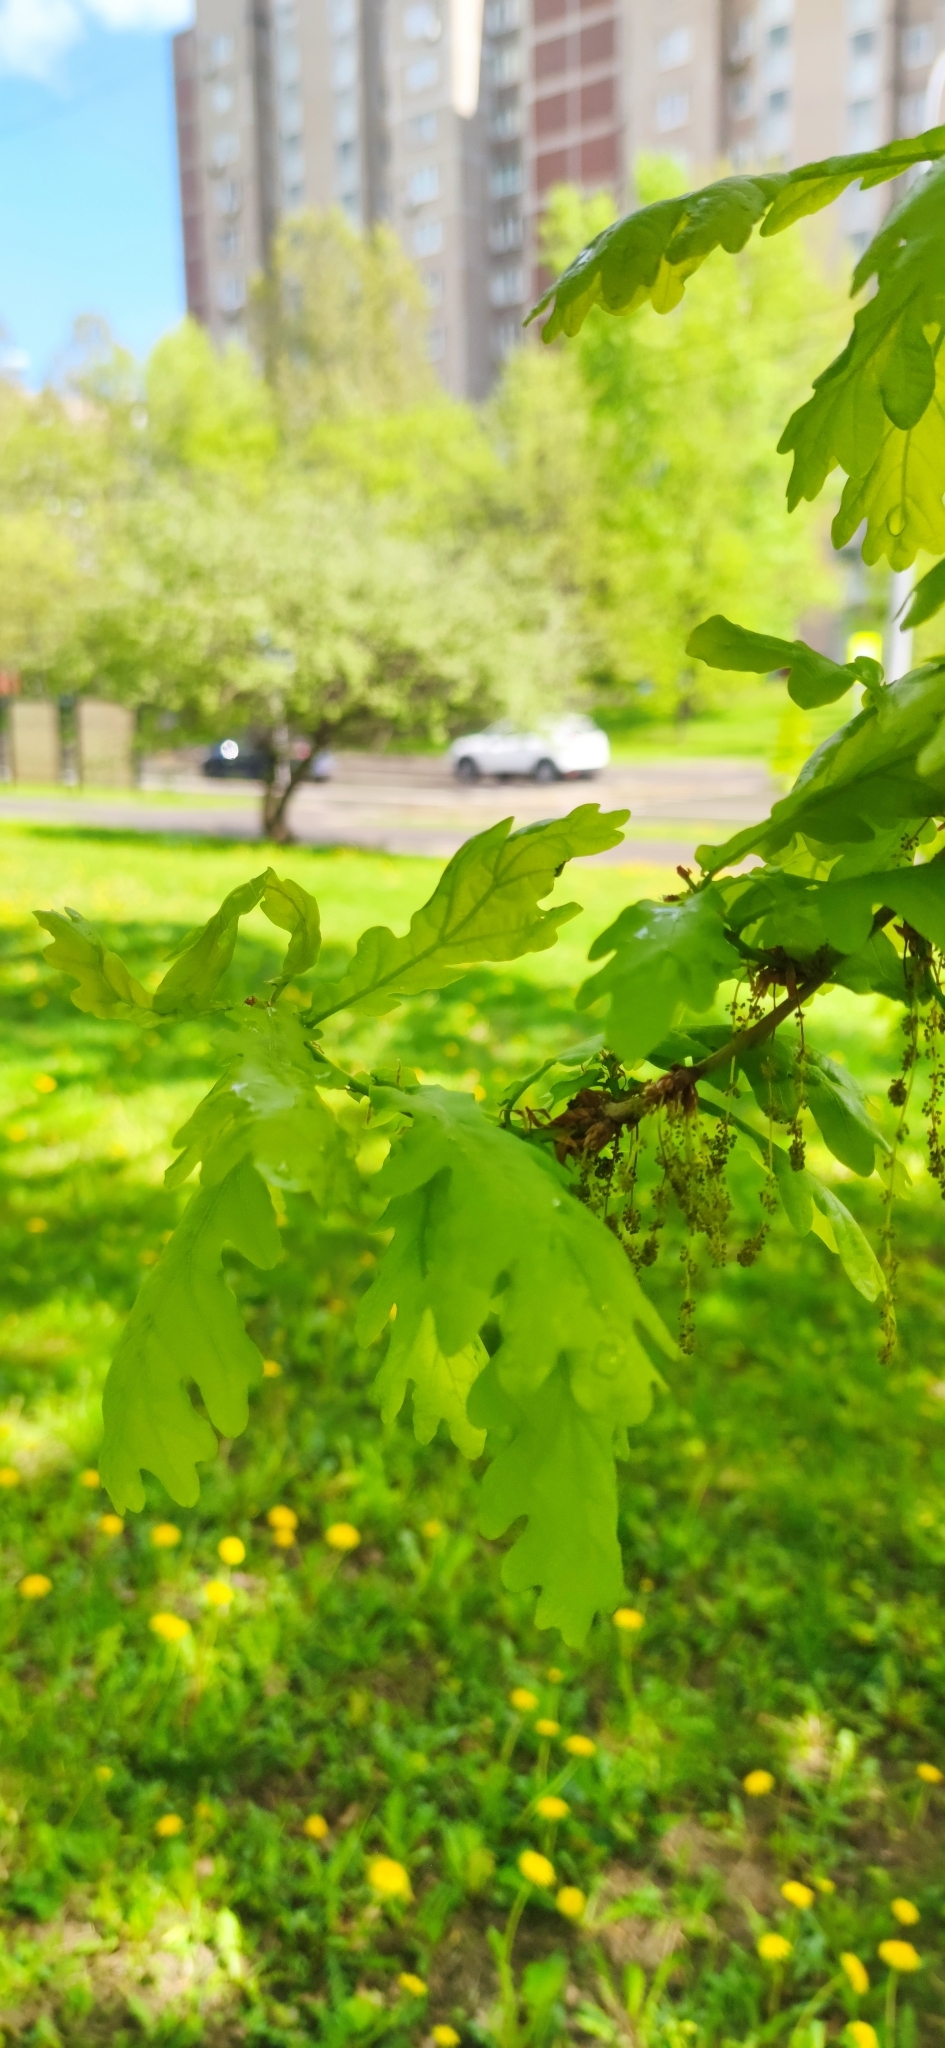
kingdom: Plantae
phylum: Tracheophyta
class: Magnoliopsida
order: Fagales
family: Fagaceae
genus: Quercus
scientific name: Quercus robur
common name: Pedunculate oak
